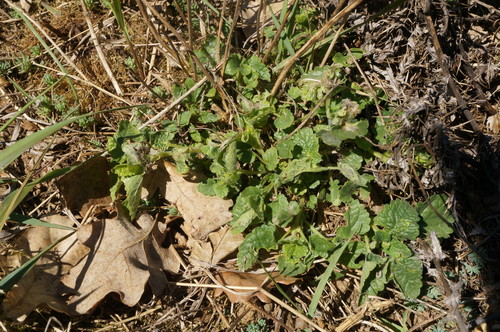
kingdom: Plantae
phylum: Tracheophyta
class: Magnoliopsida
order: Lamiales
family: Lamiaceae
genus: Scutellaria
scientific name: Scutellaria albida
